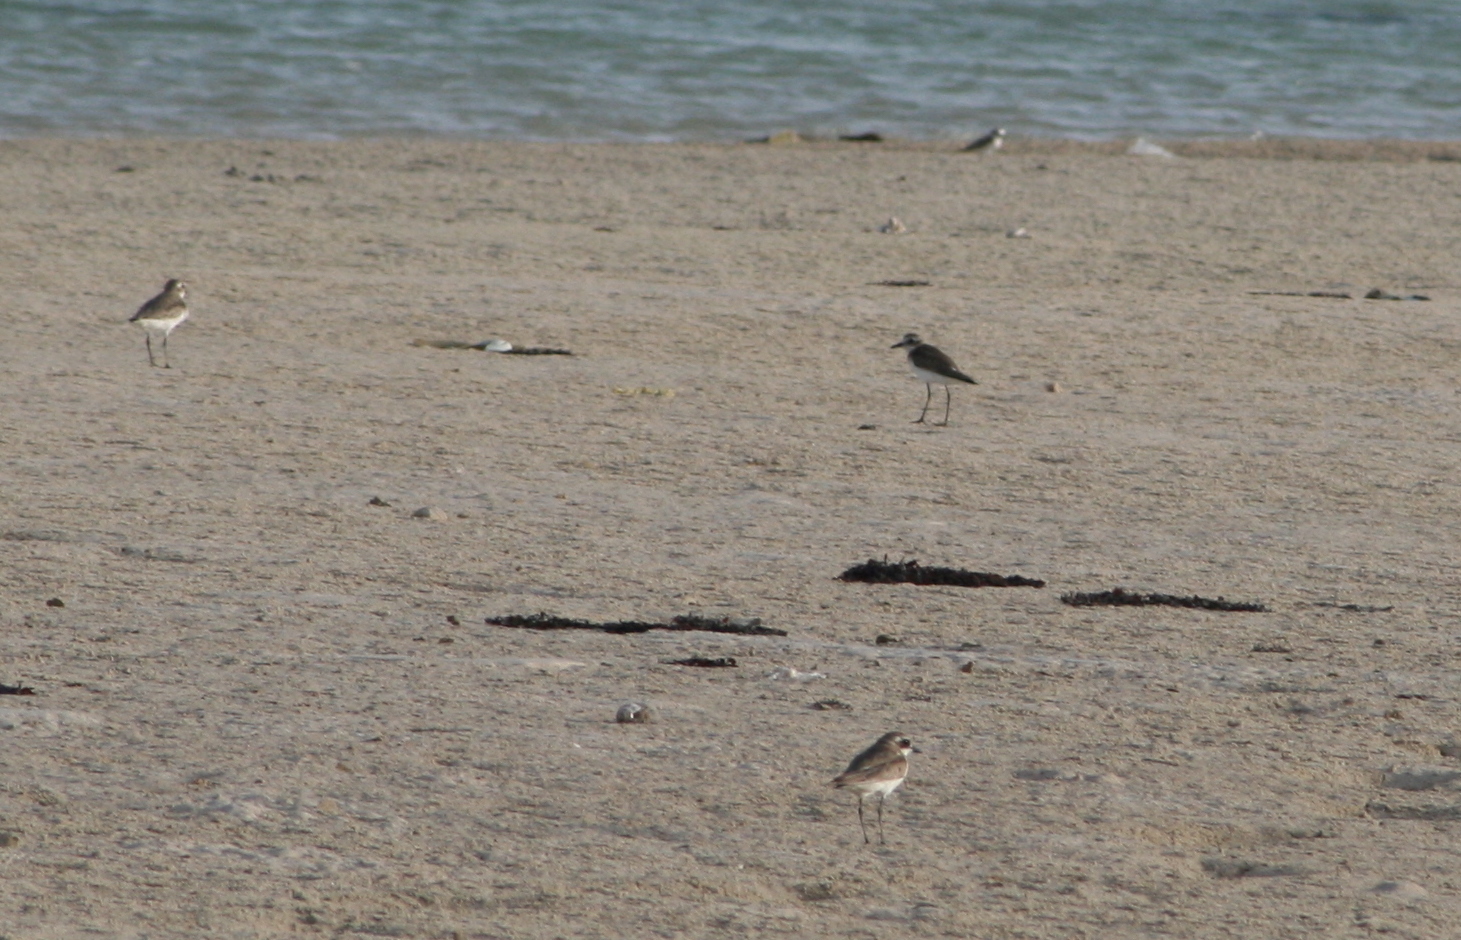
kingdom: Animalia
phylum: Chordata
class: Aves
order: Charadriiformes
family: Charadriidae
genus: Charadrius
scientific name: Charadrius leschenaultii
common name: Greater sand plover
